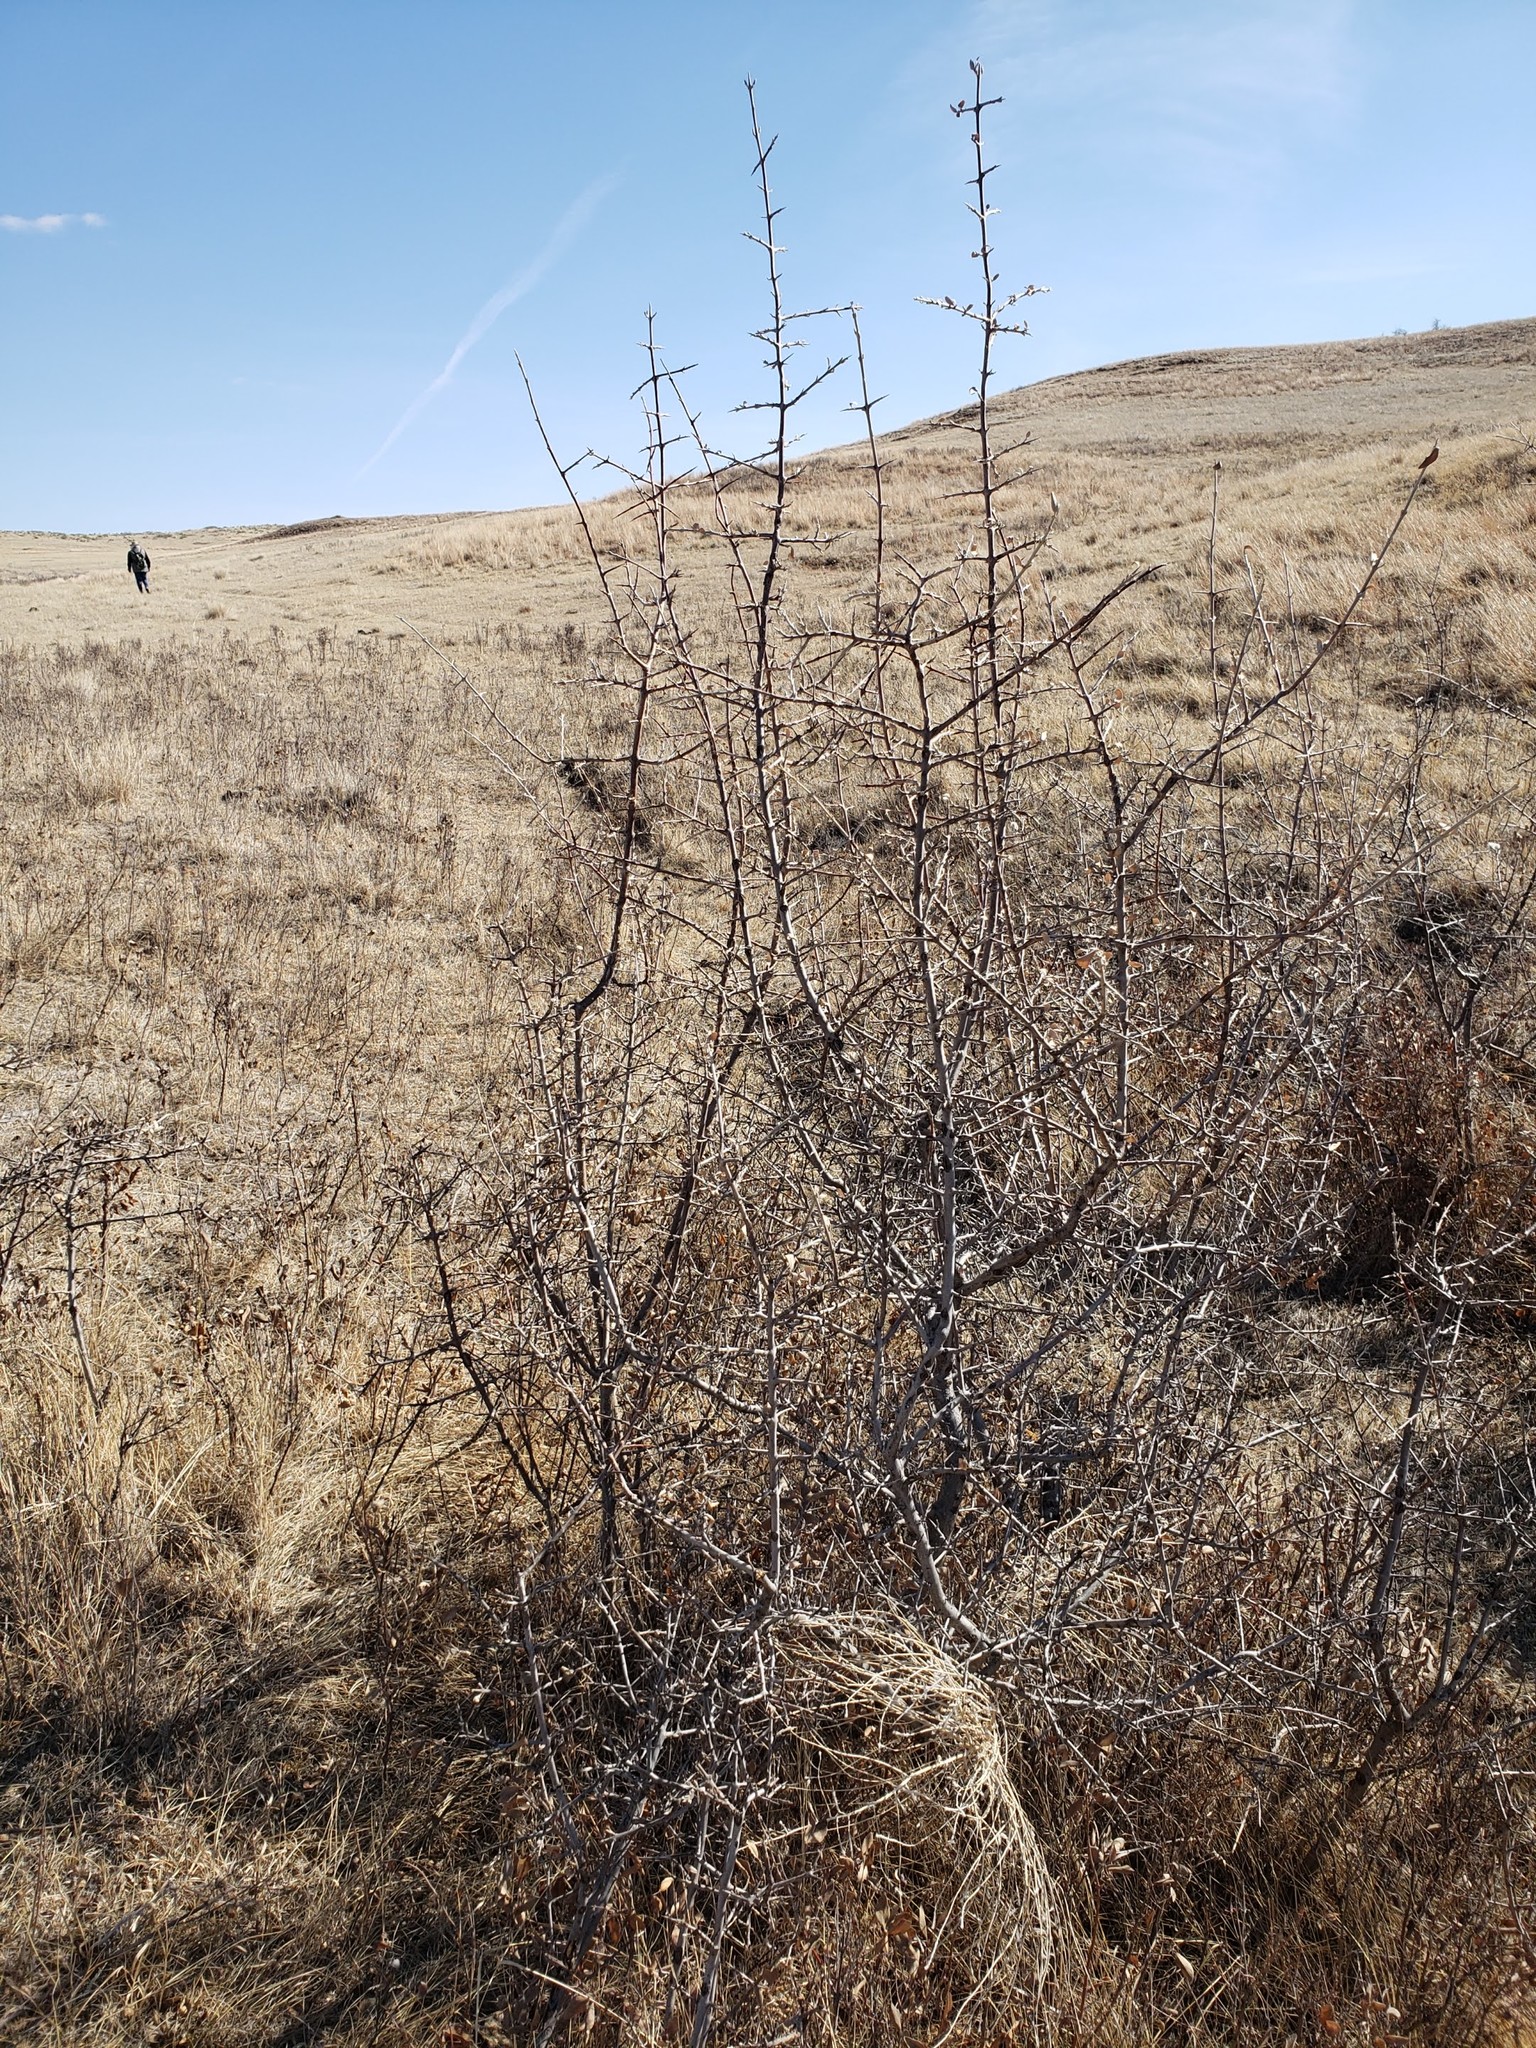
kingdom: Plantae
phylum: Tracheophyta
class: Magnoliopsida
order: Rosales
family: Elaeagnaceae
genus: Shepherdia
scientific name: Shepherdia argentea
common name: Silver buffaloberry
